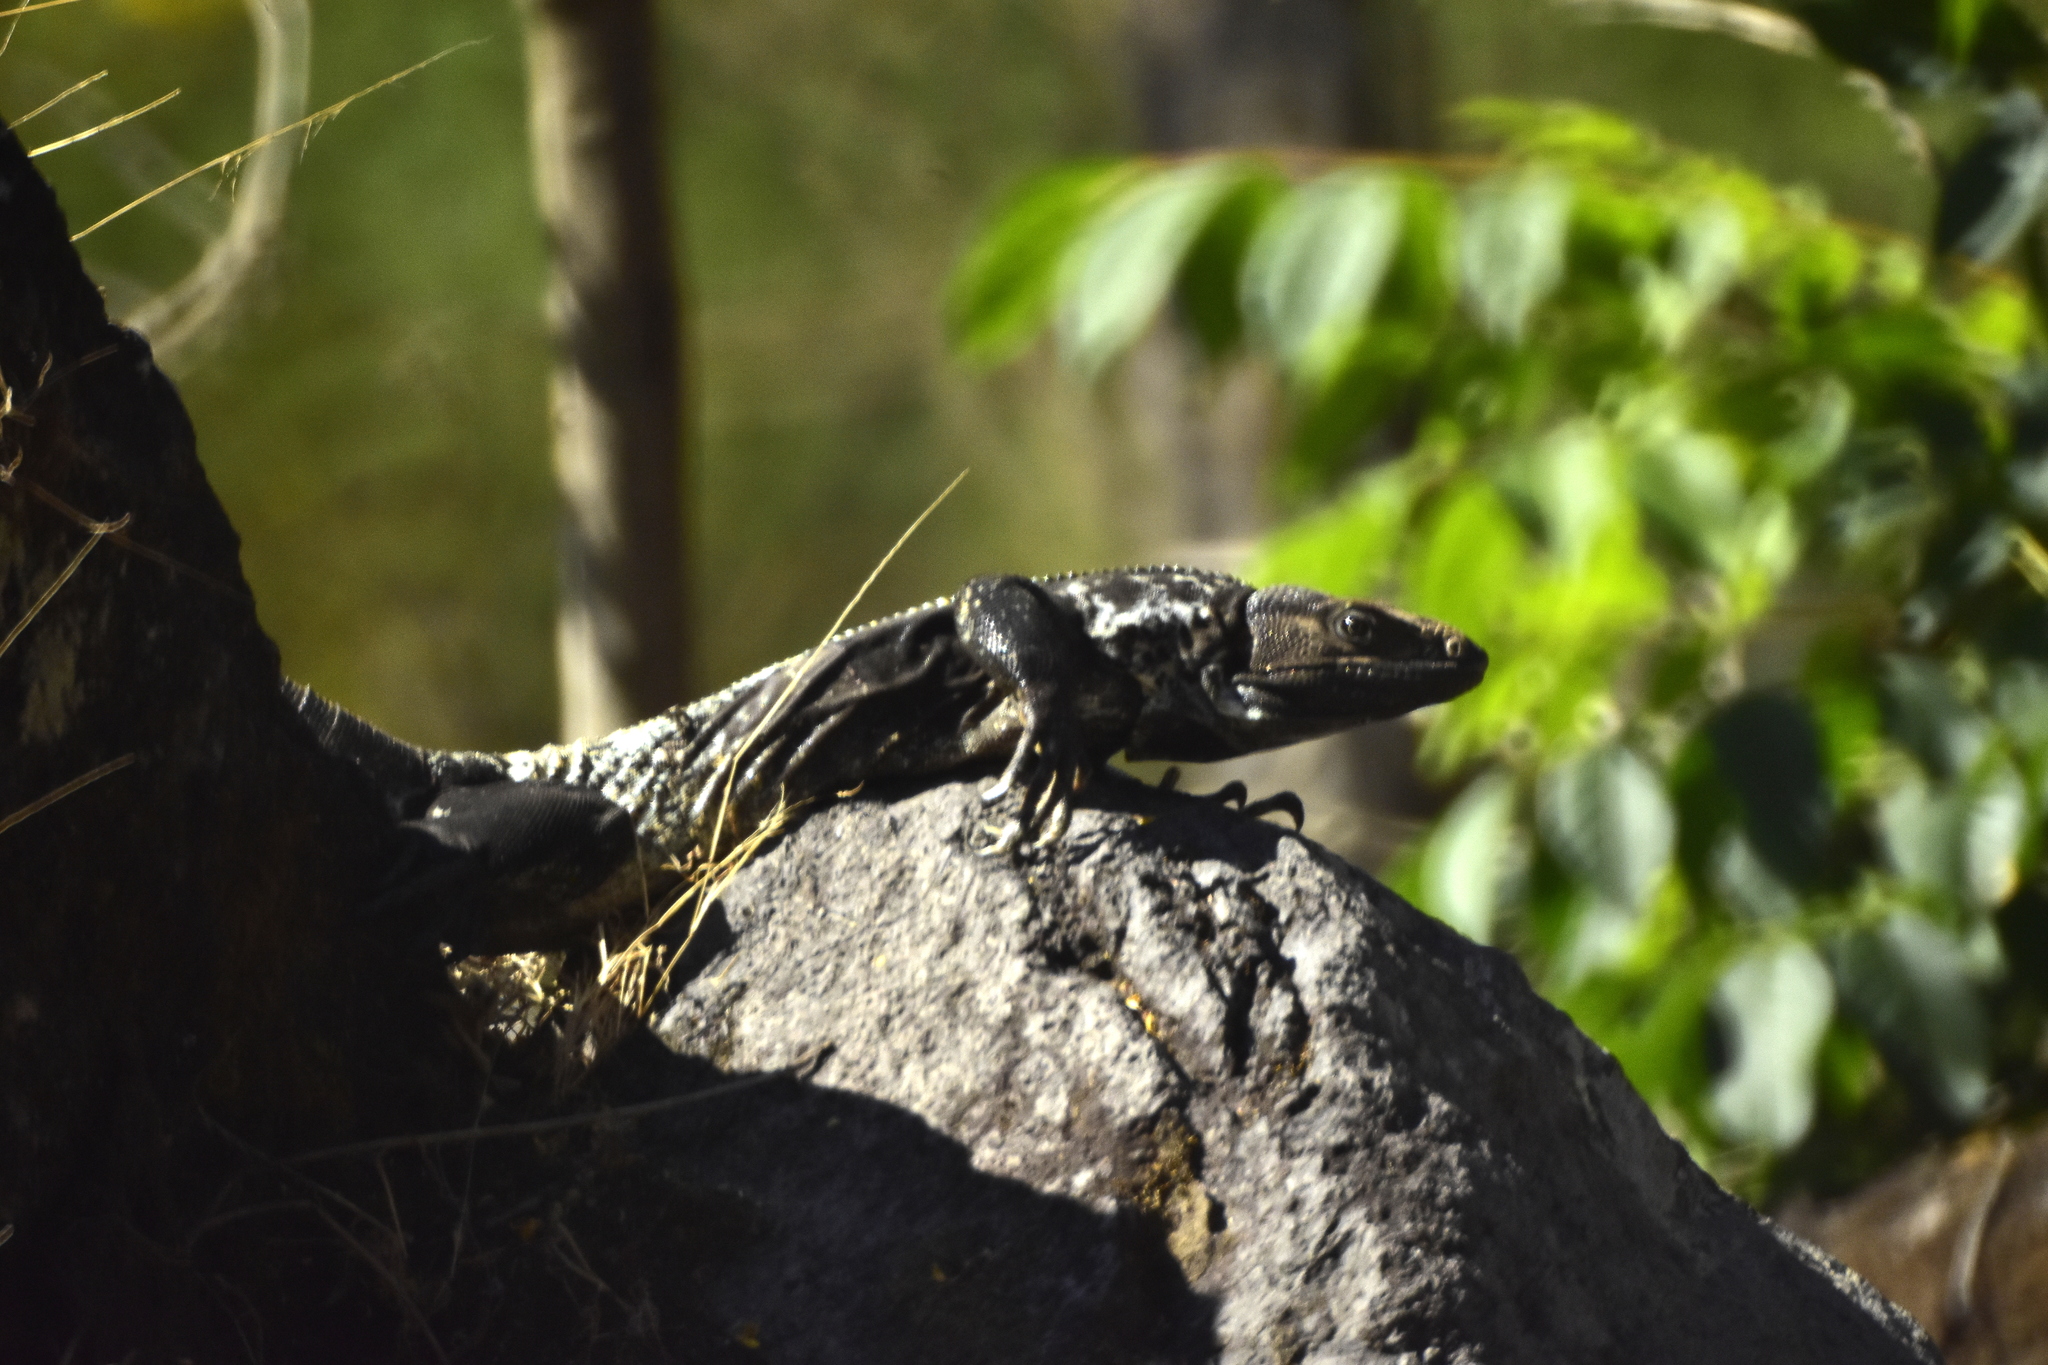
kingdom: Animalia
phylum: Chordata
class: Squamata
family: Iguanidae
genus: Ctenosaura
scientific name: Ctenosaura pectinata
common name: Guerreran spiny-tailed iguana
